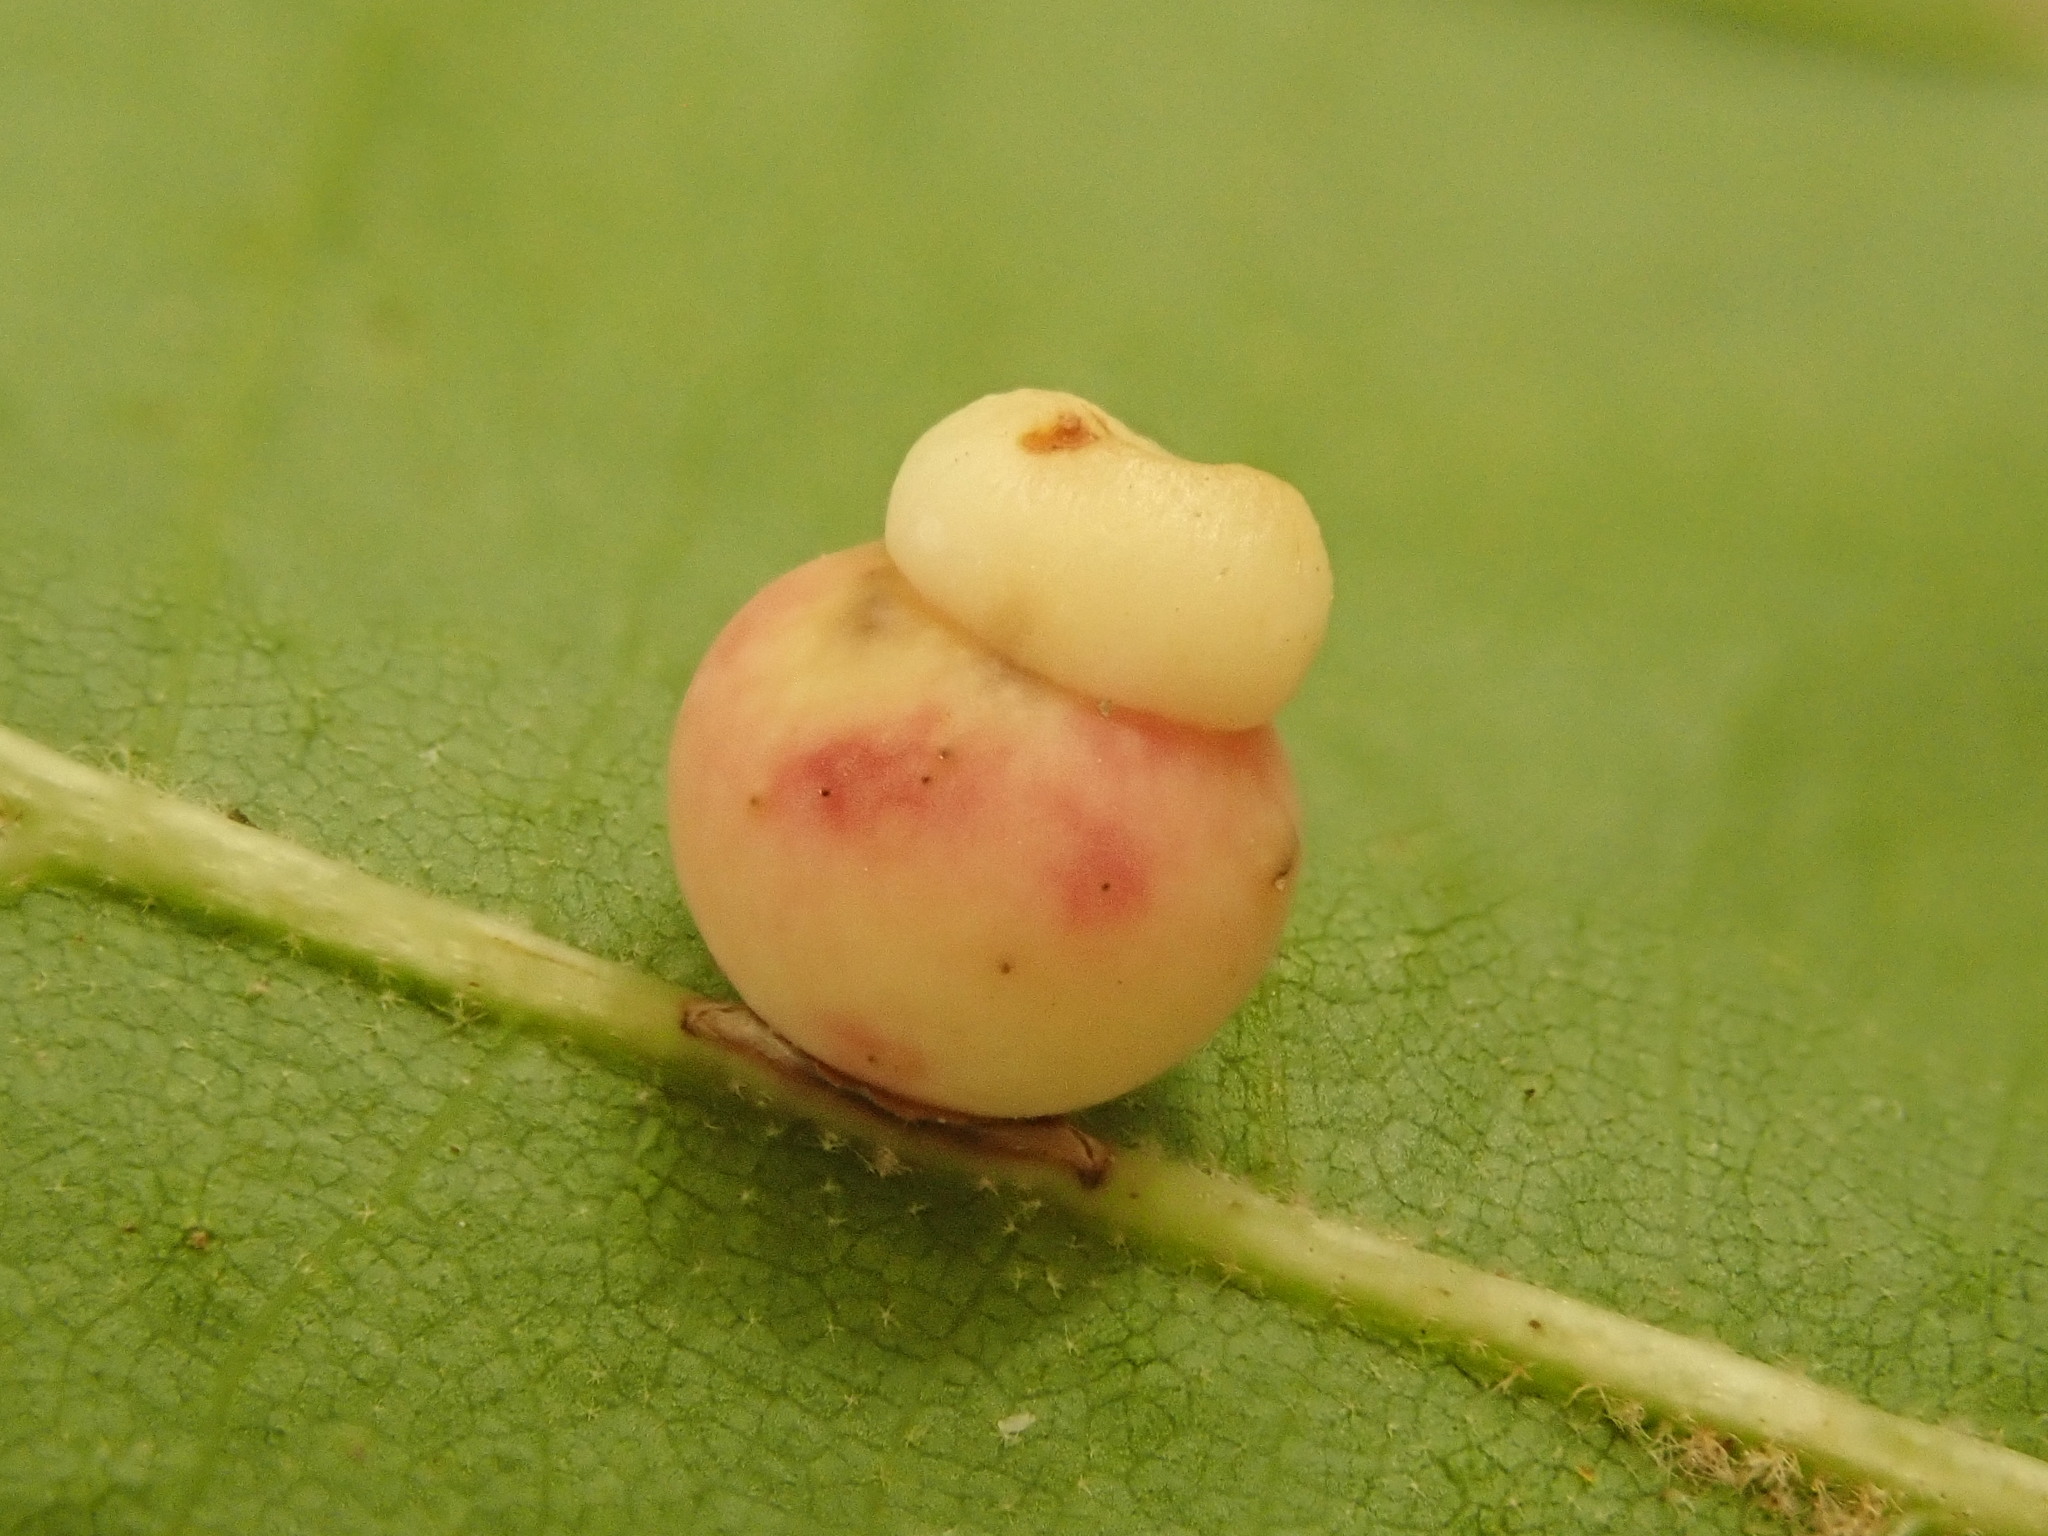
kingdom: Animalia
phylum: Arthropoda
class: Insecta
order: Hymenoptera
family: Cynipidae
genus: Kokkocynips
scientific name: Kokkocynips rileyi
